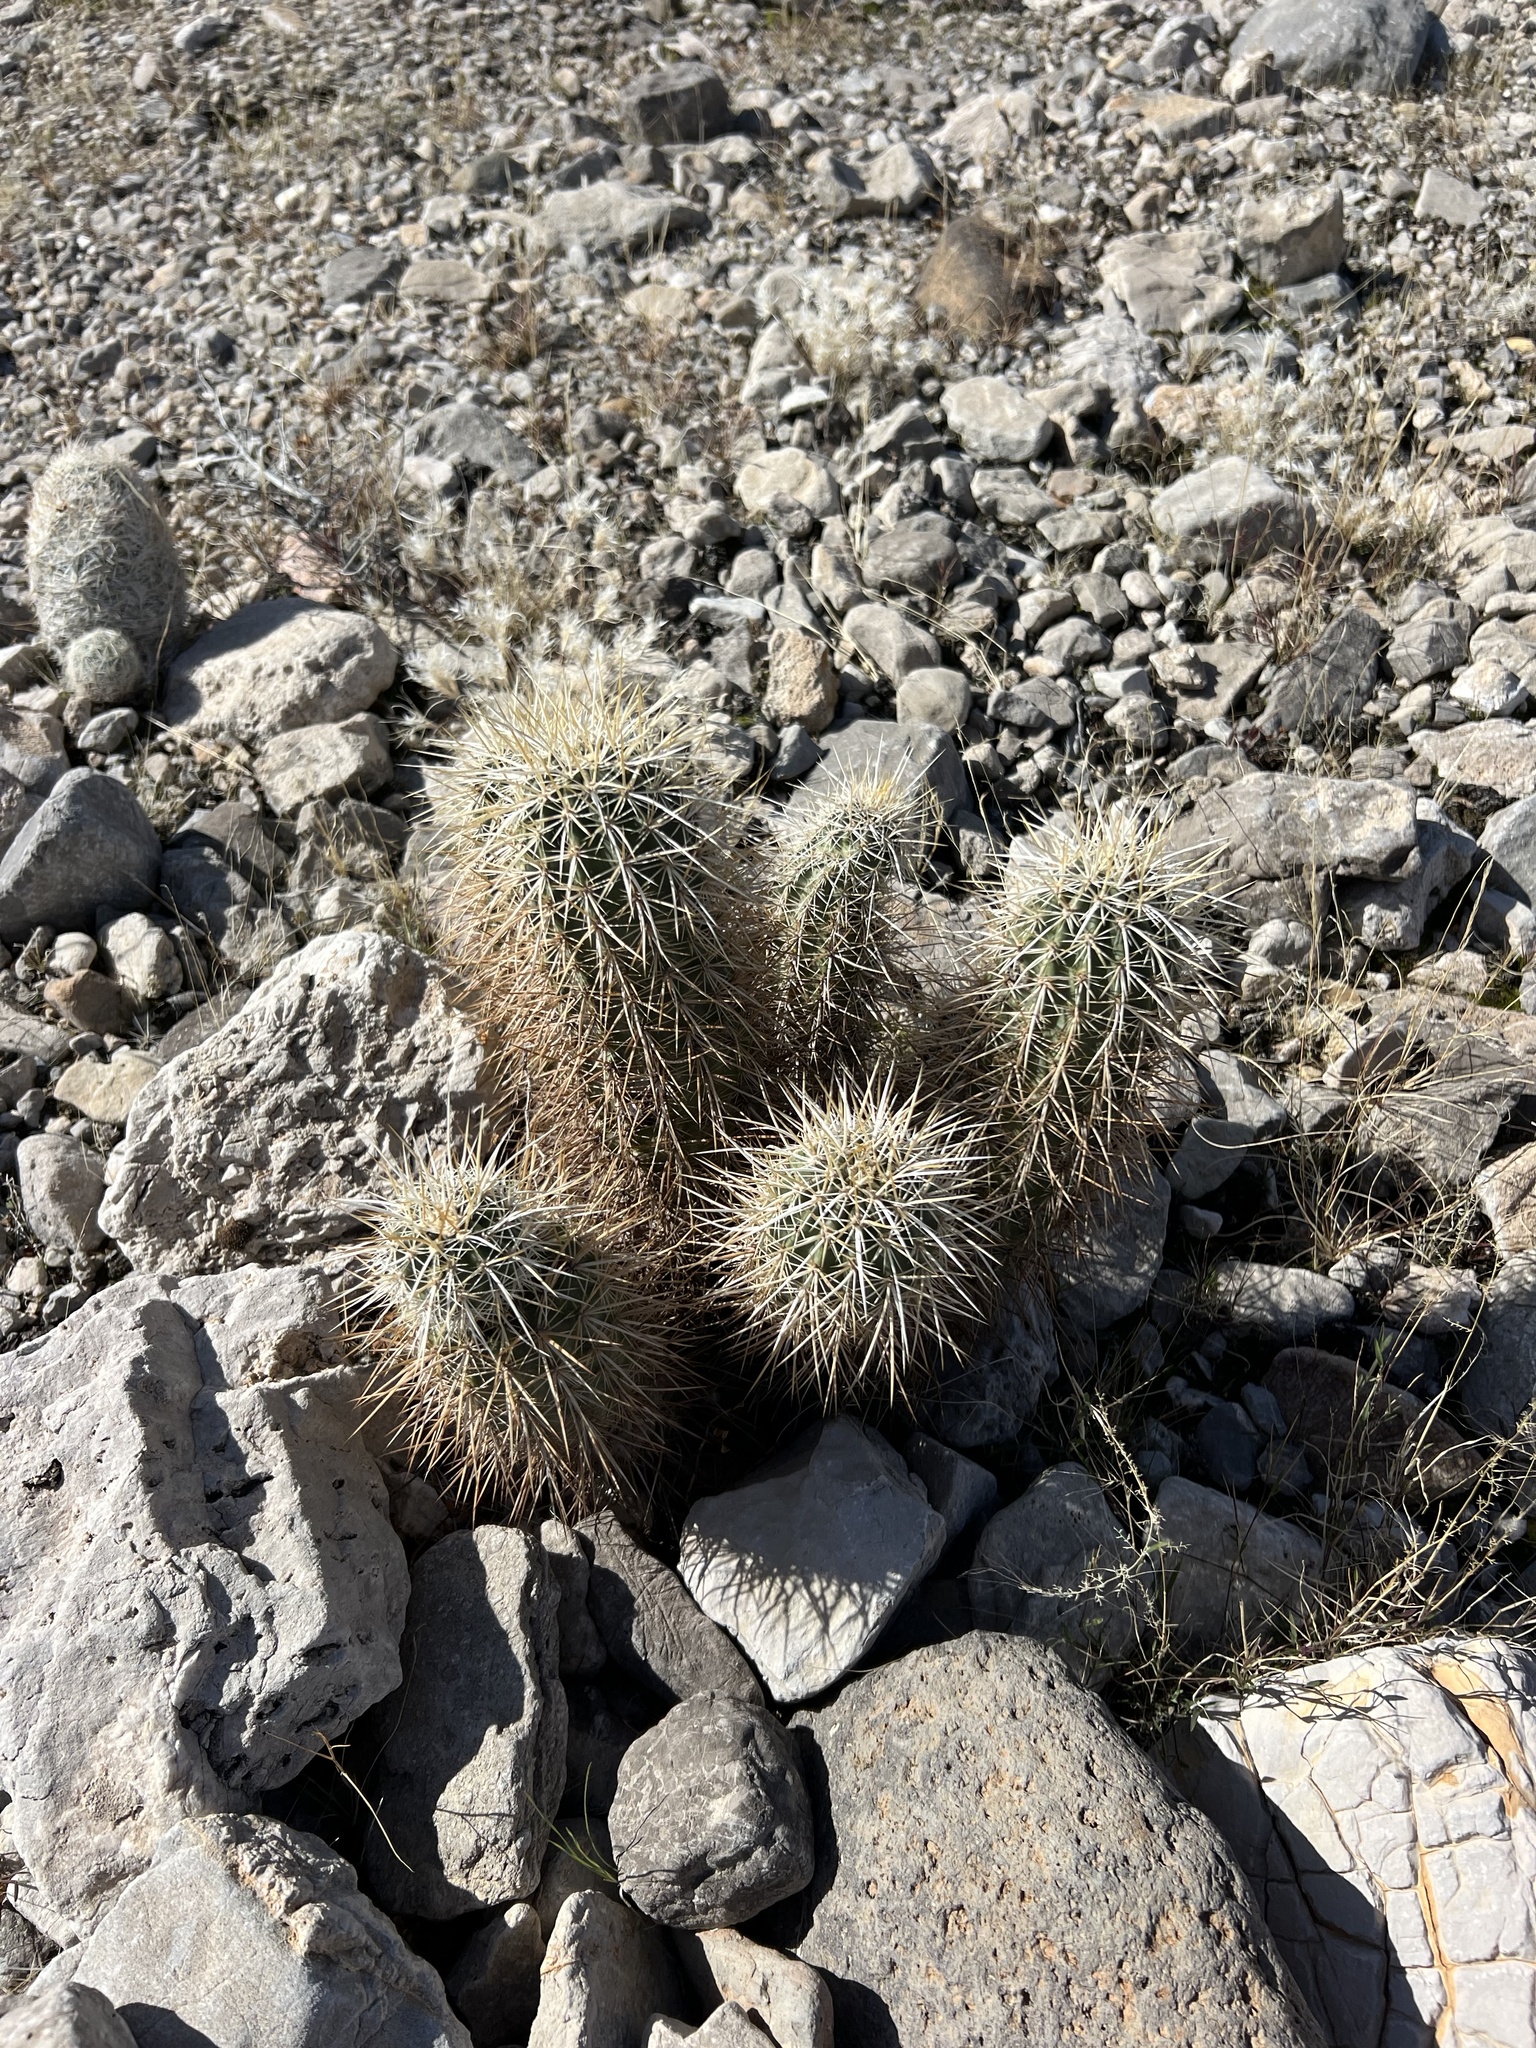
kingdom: Plantae
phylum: Tracheophyta
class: Magnoliopsida
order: Caryophyllales
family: Cactaceae
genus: Echinocereus
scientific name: Echinocereus engelmannii
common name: Engelmann's hedgehog cactus
